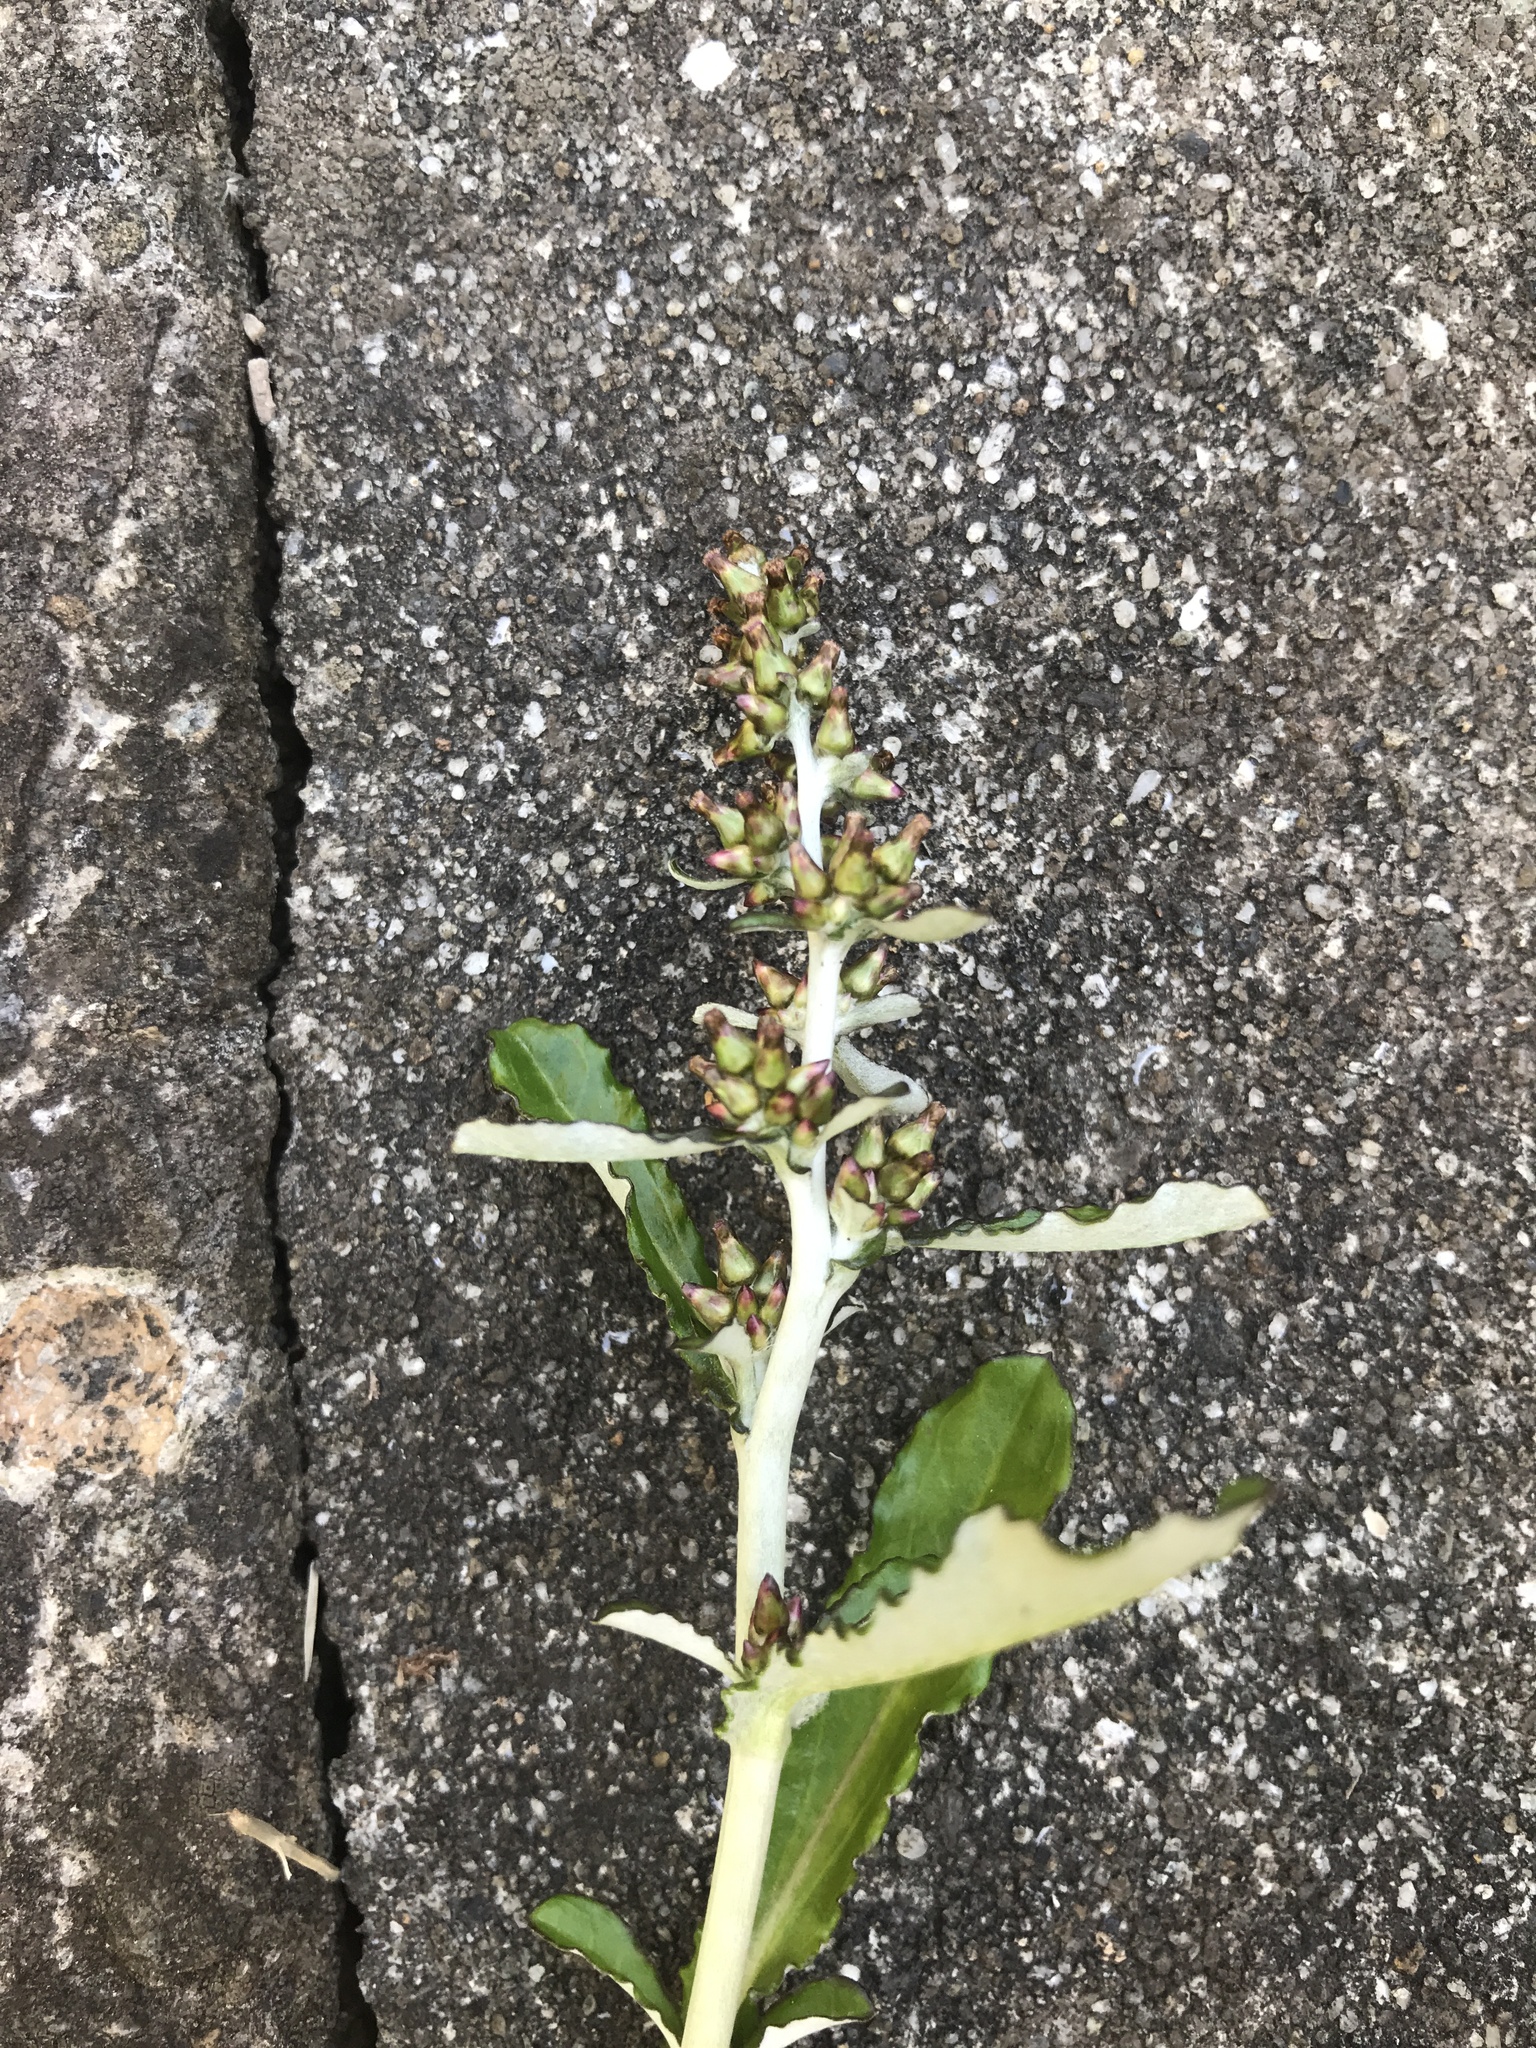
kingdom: Plantae
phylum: Tracheophyta
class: Magnoliopsida
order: Asterales
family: Asteraceae
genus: Gamochaeta
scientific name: Gamochaeta impatiens
